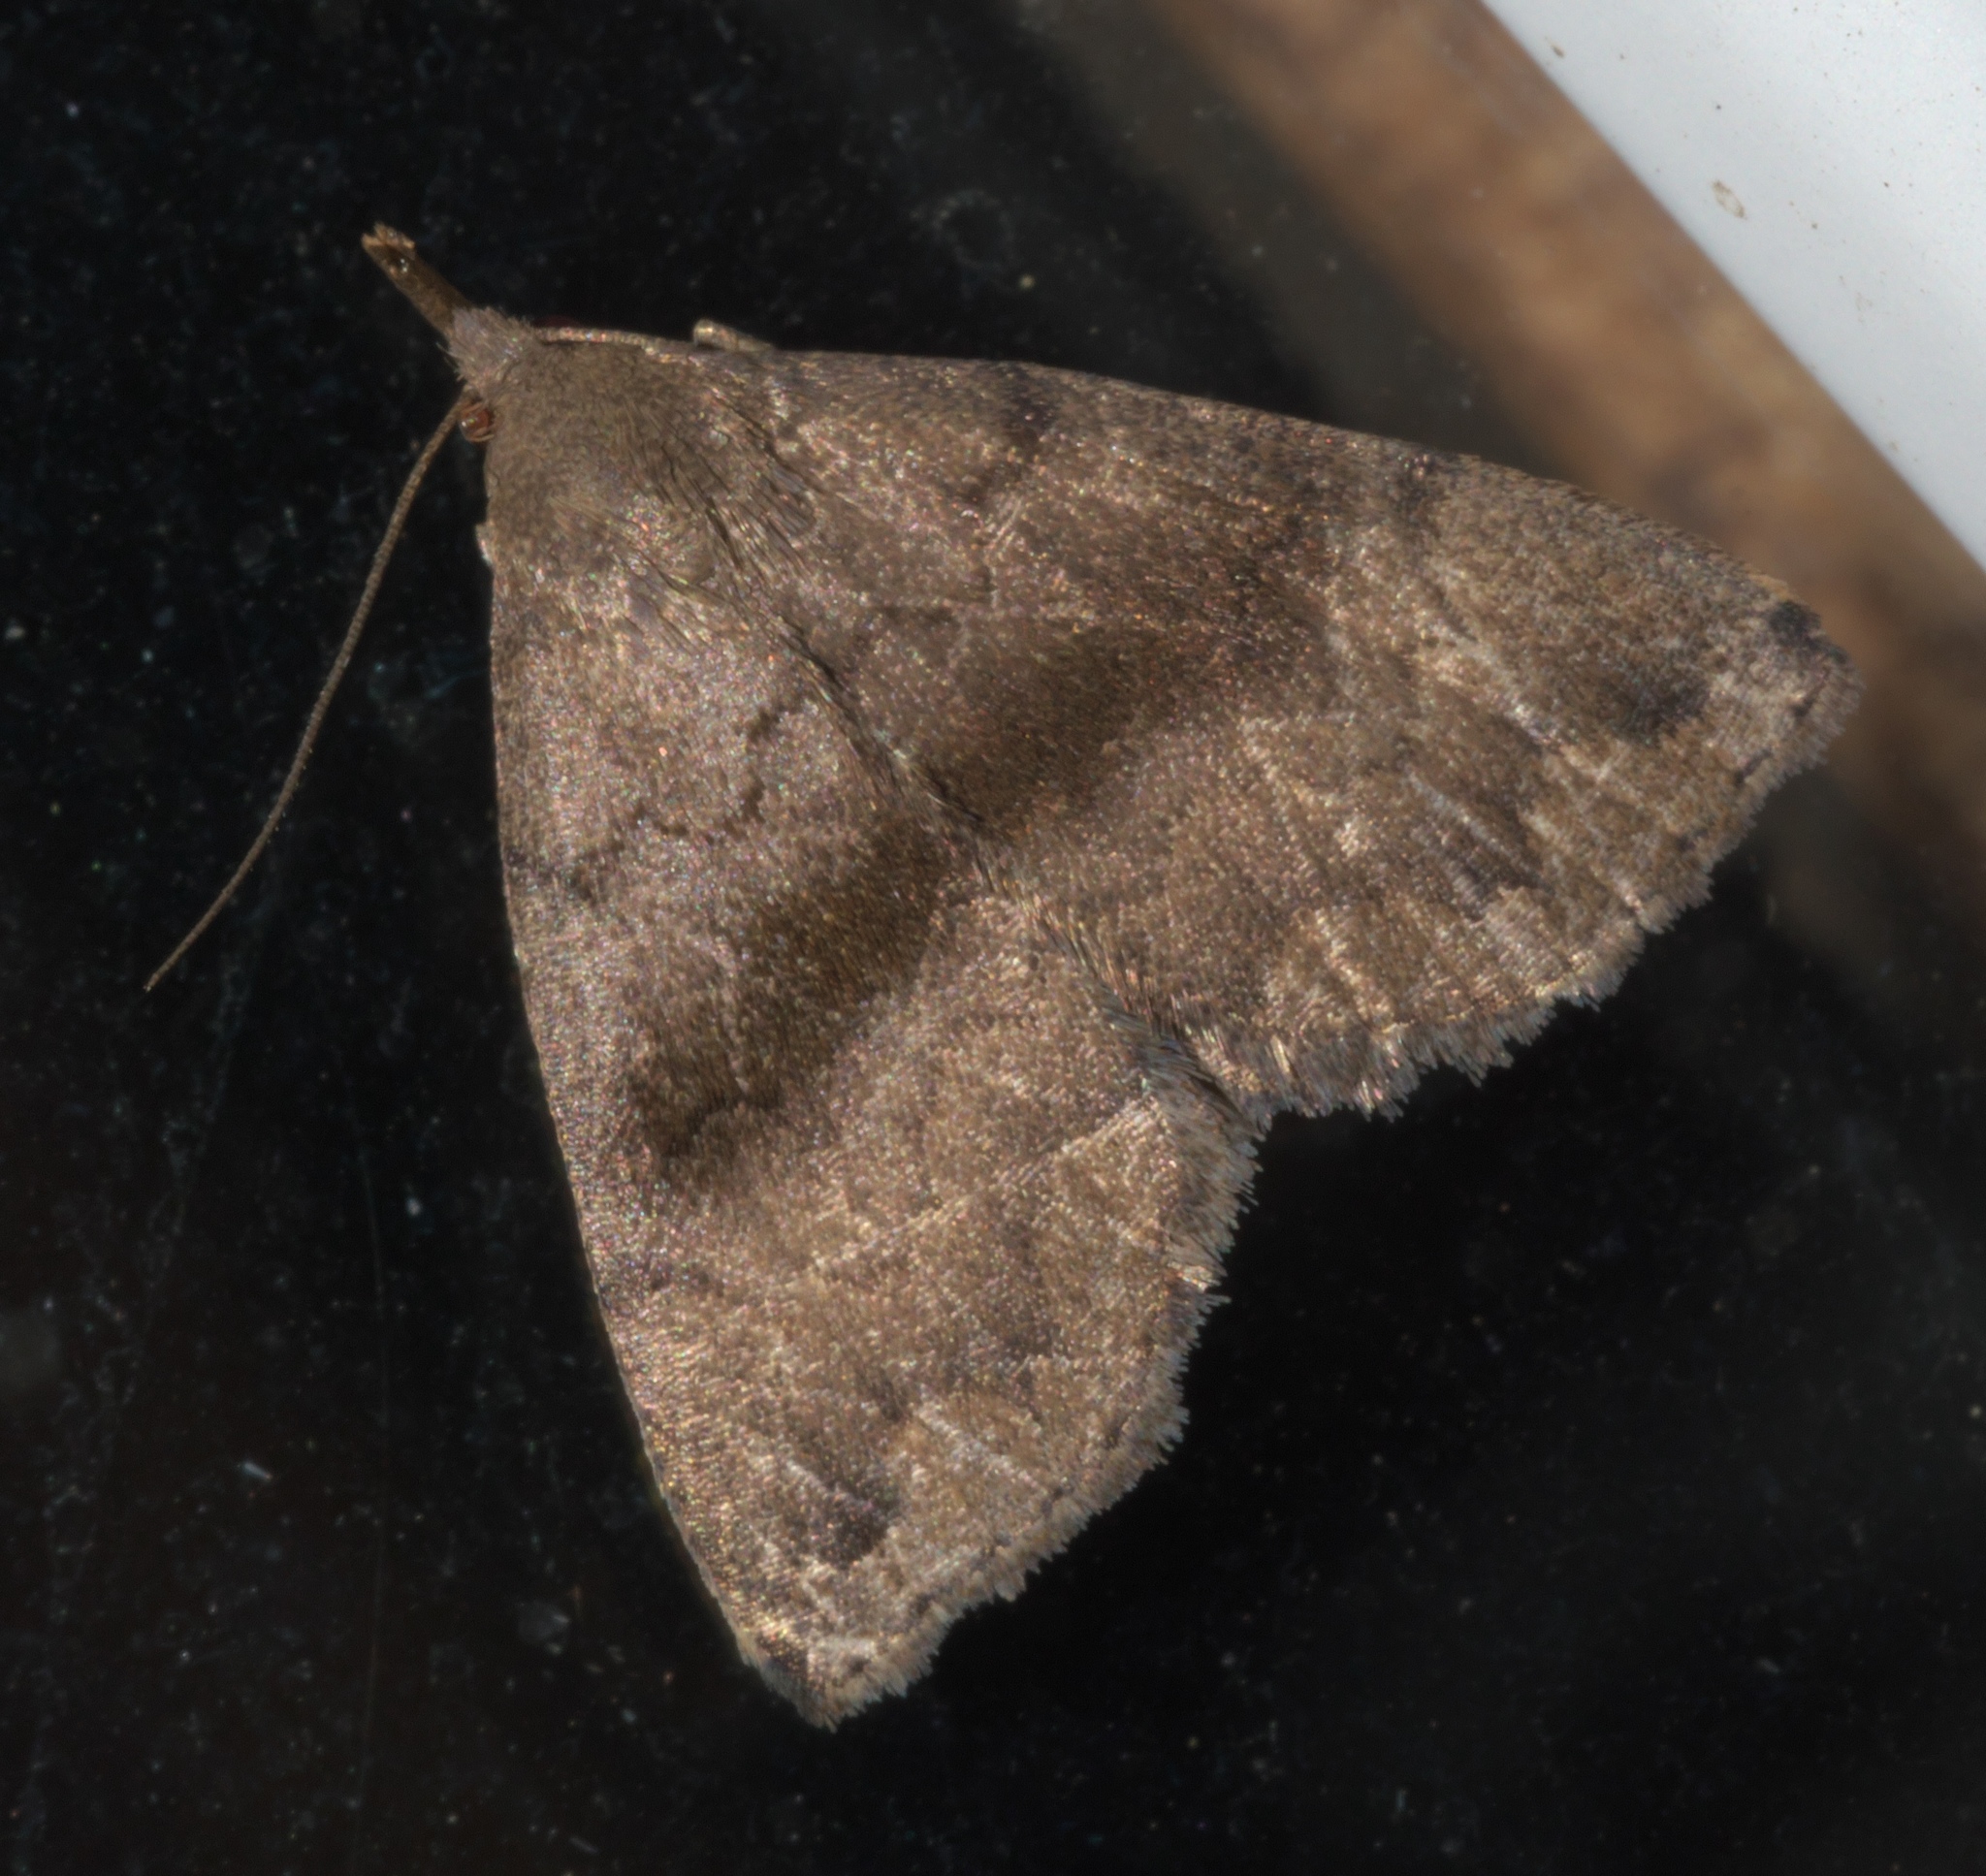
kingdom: Animalia
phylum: Arthropoda
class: Insecta
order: Lepidoptera
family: Erebidae
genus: Phalaenostola
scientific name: Phalaenostola eumelusalis
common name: Dark phalaenostola moth
